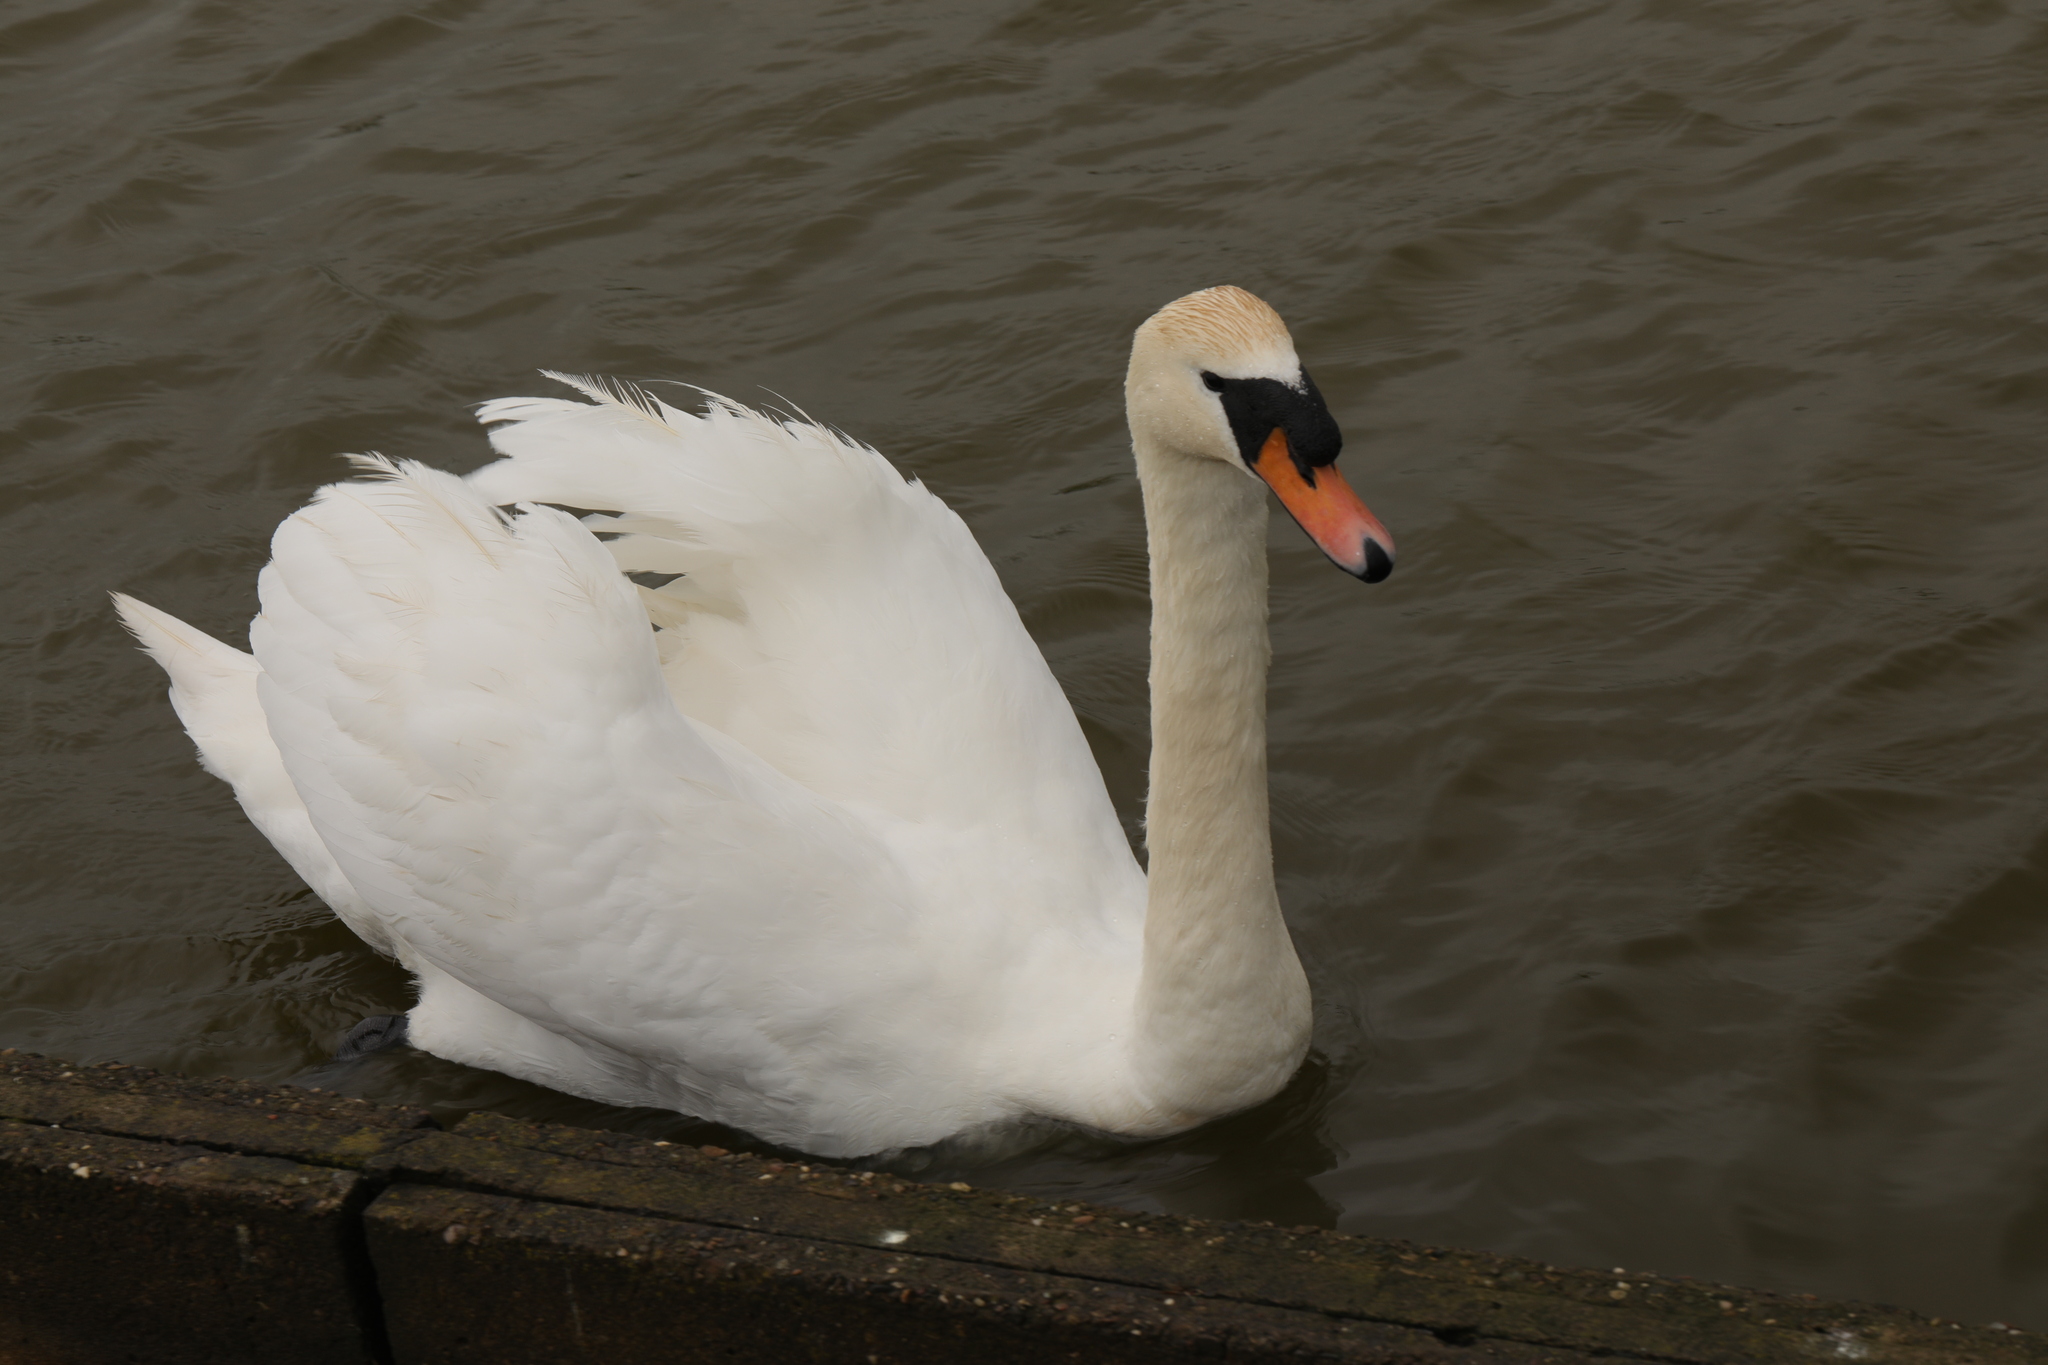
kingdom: Animalia
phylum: Chordata
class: Aves
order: Anseriformes
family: Anatidae
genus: Cygnus
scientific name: Cygnus olor
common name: Mute swan
